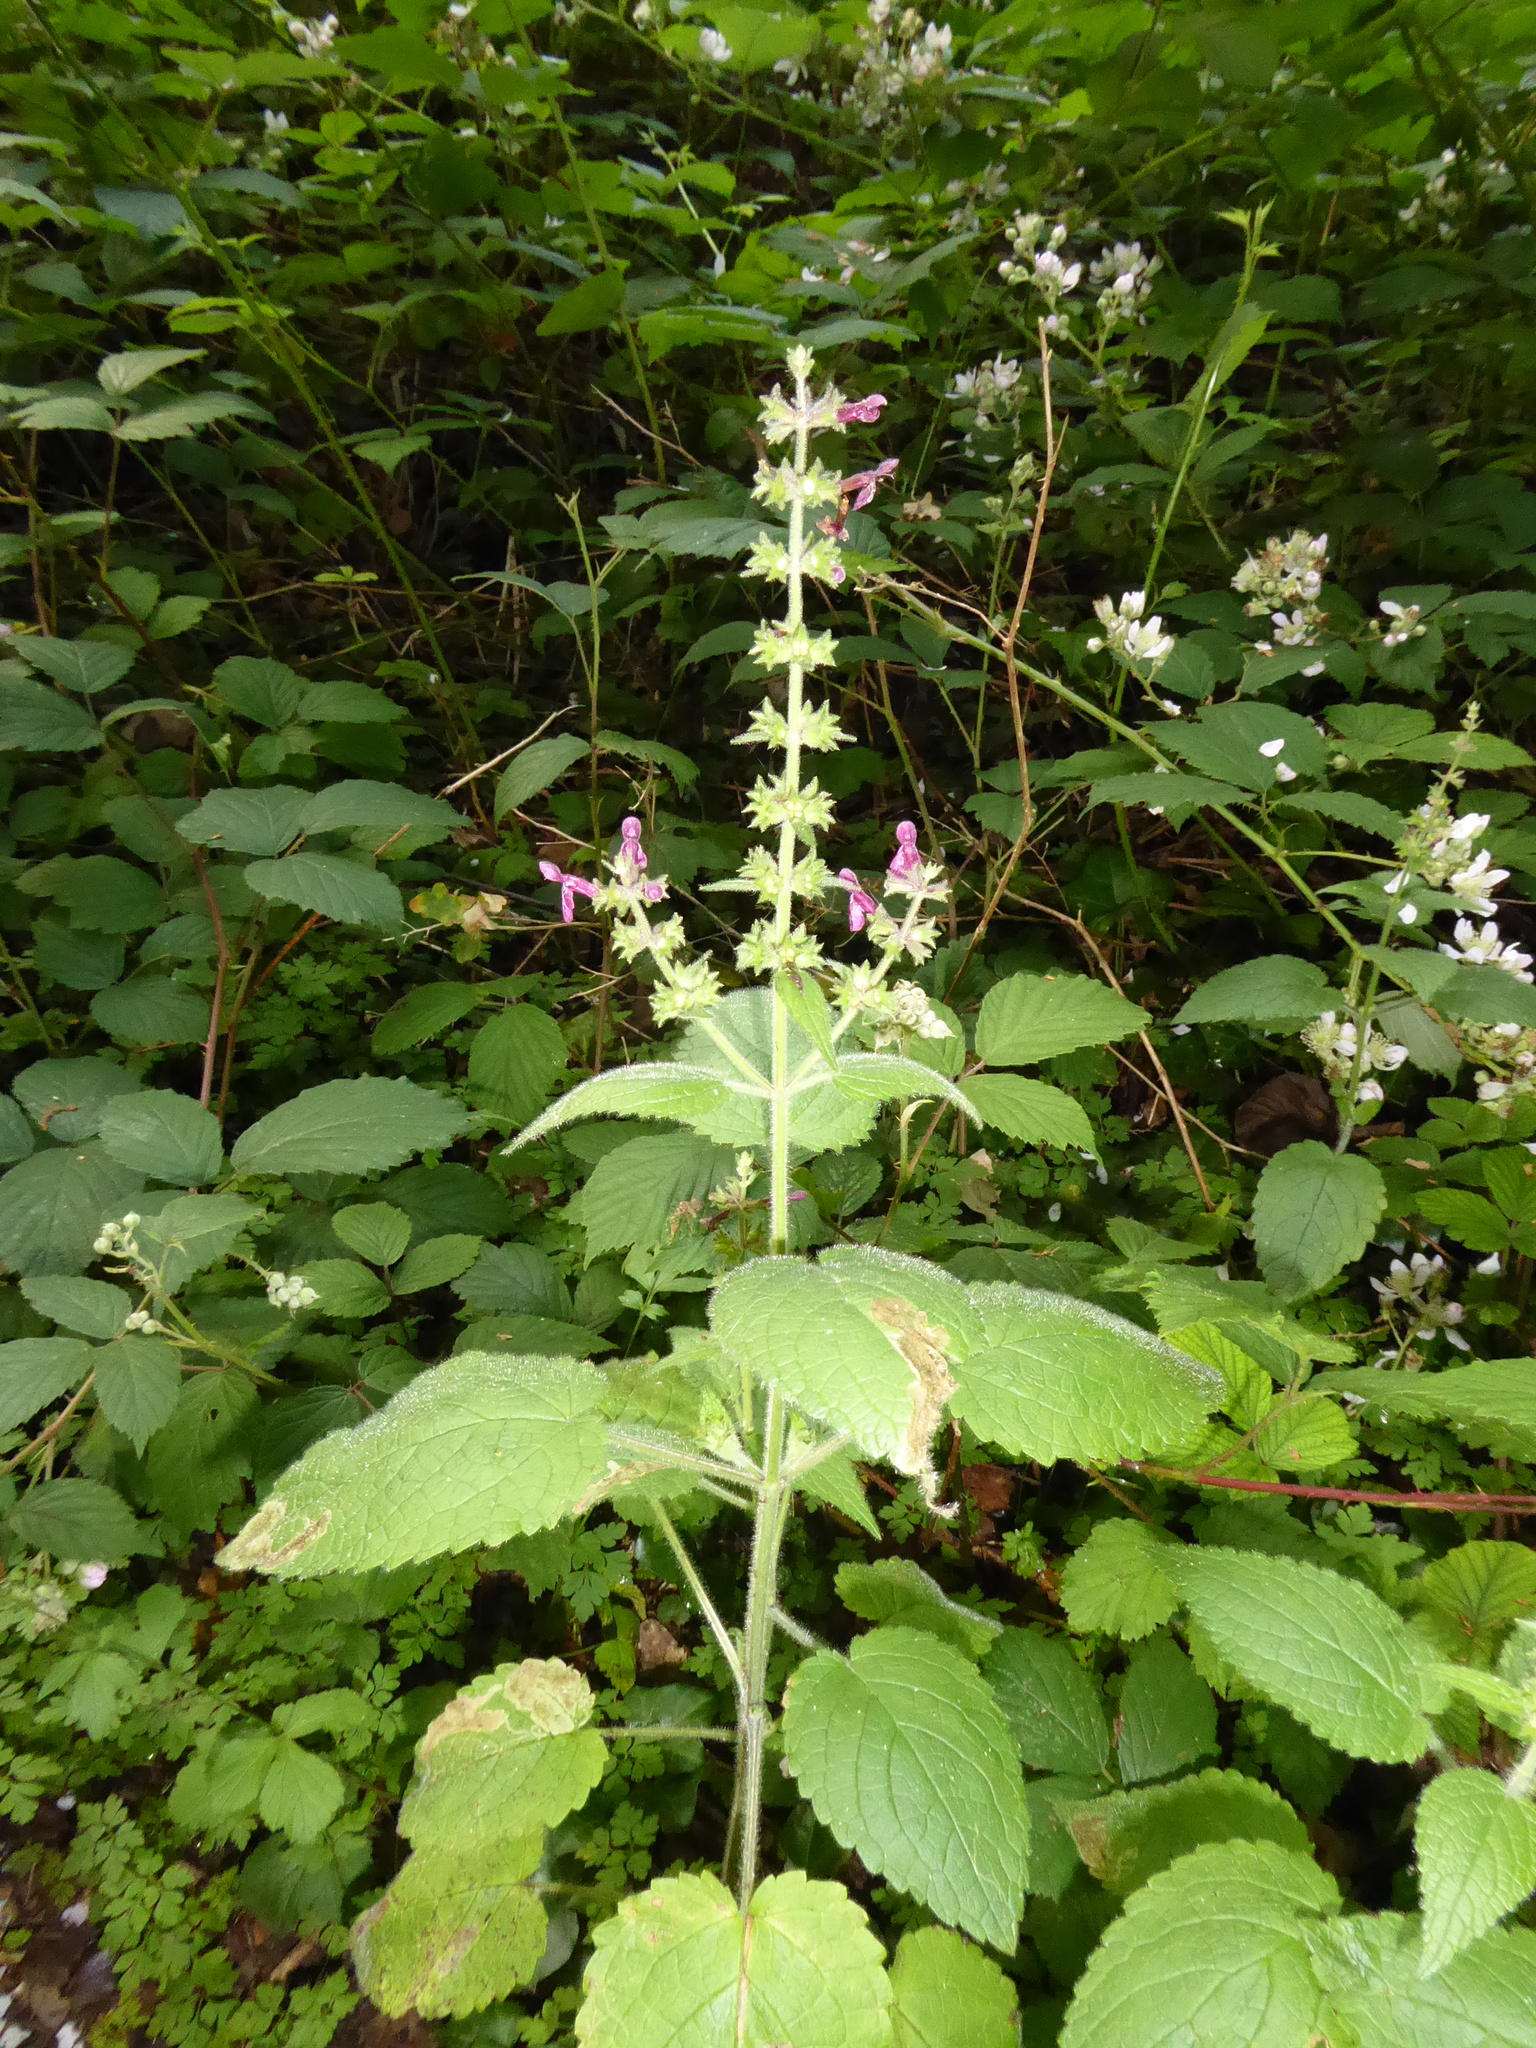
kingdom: Plantae
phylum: Tracheophyta
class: Magnoliopsida
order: Lamiales
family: Lamiaceae
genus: Stachys
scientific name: Stachys sylvatica
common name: Hedge woundwort
